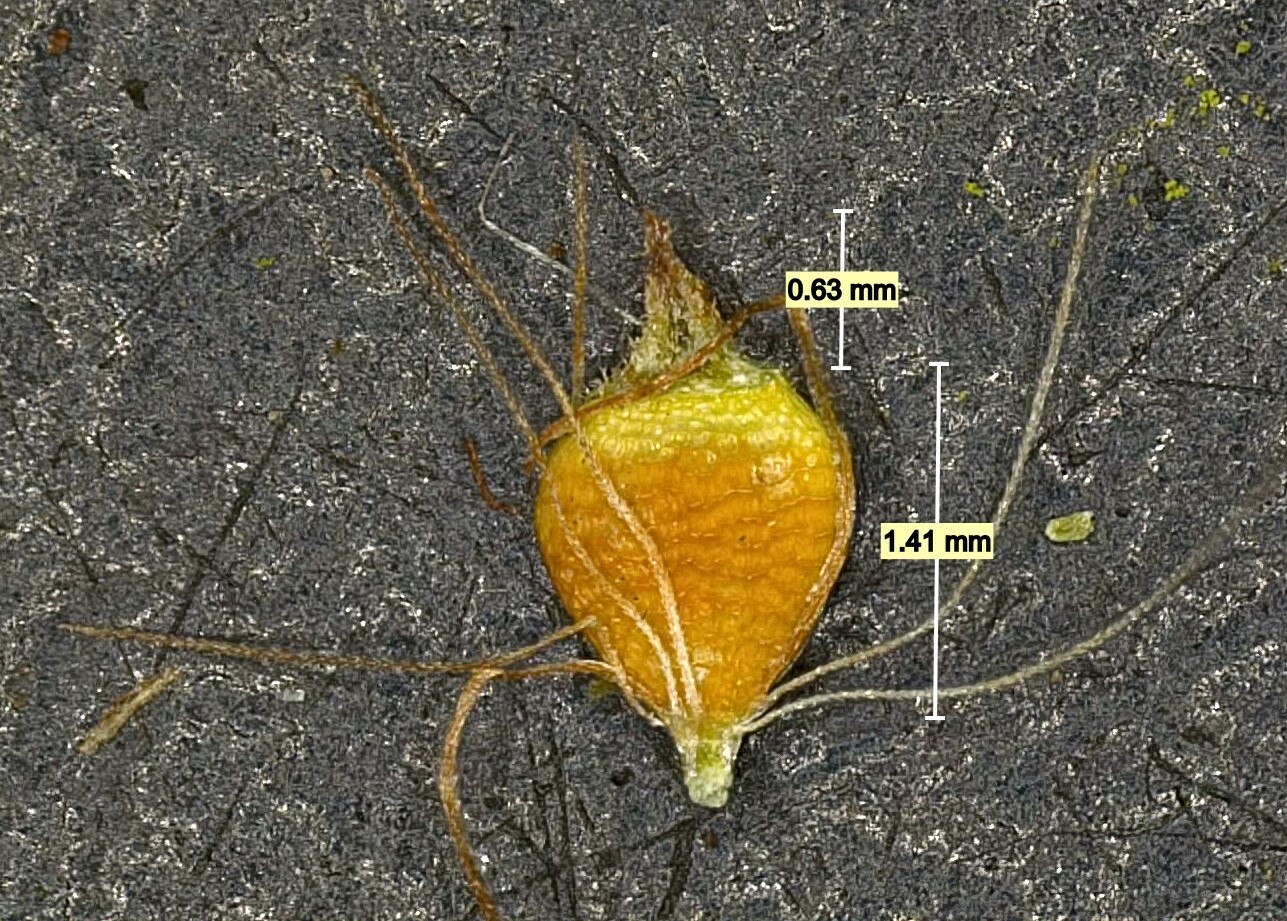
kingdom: Plantae
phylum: Tracheophyta
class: Liliopsida
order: Poales
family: Cyperaceae
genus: Rhynchospora
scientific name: Rhynchospora caduca
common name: Anglestem beaksedge
